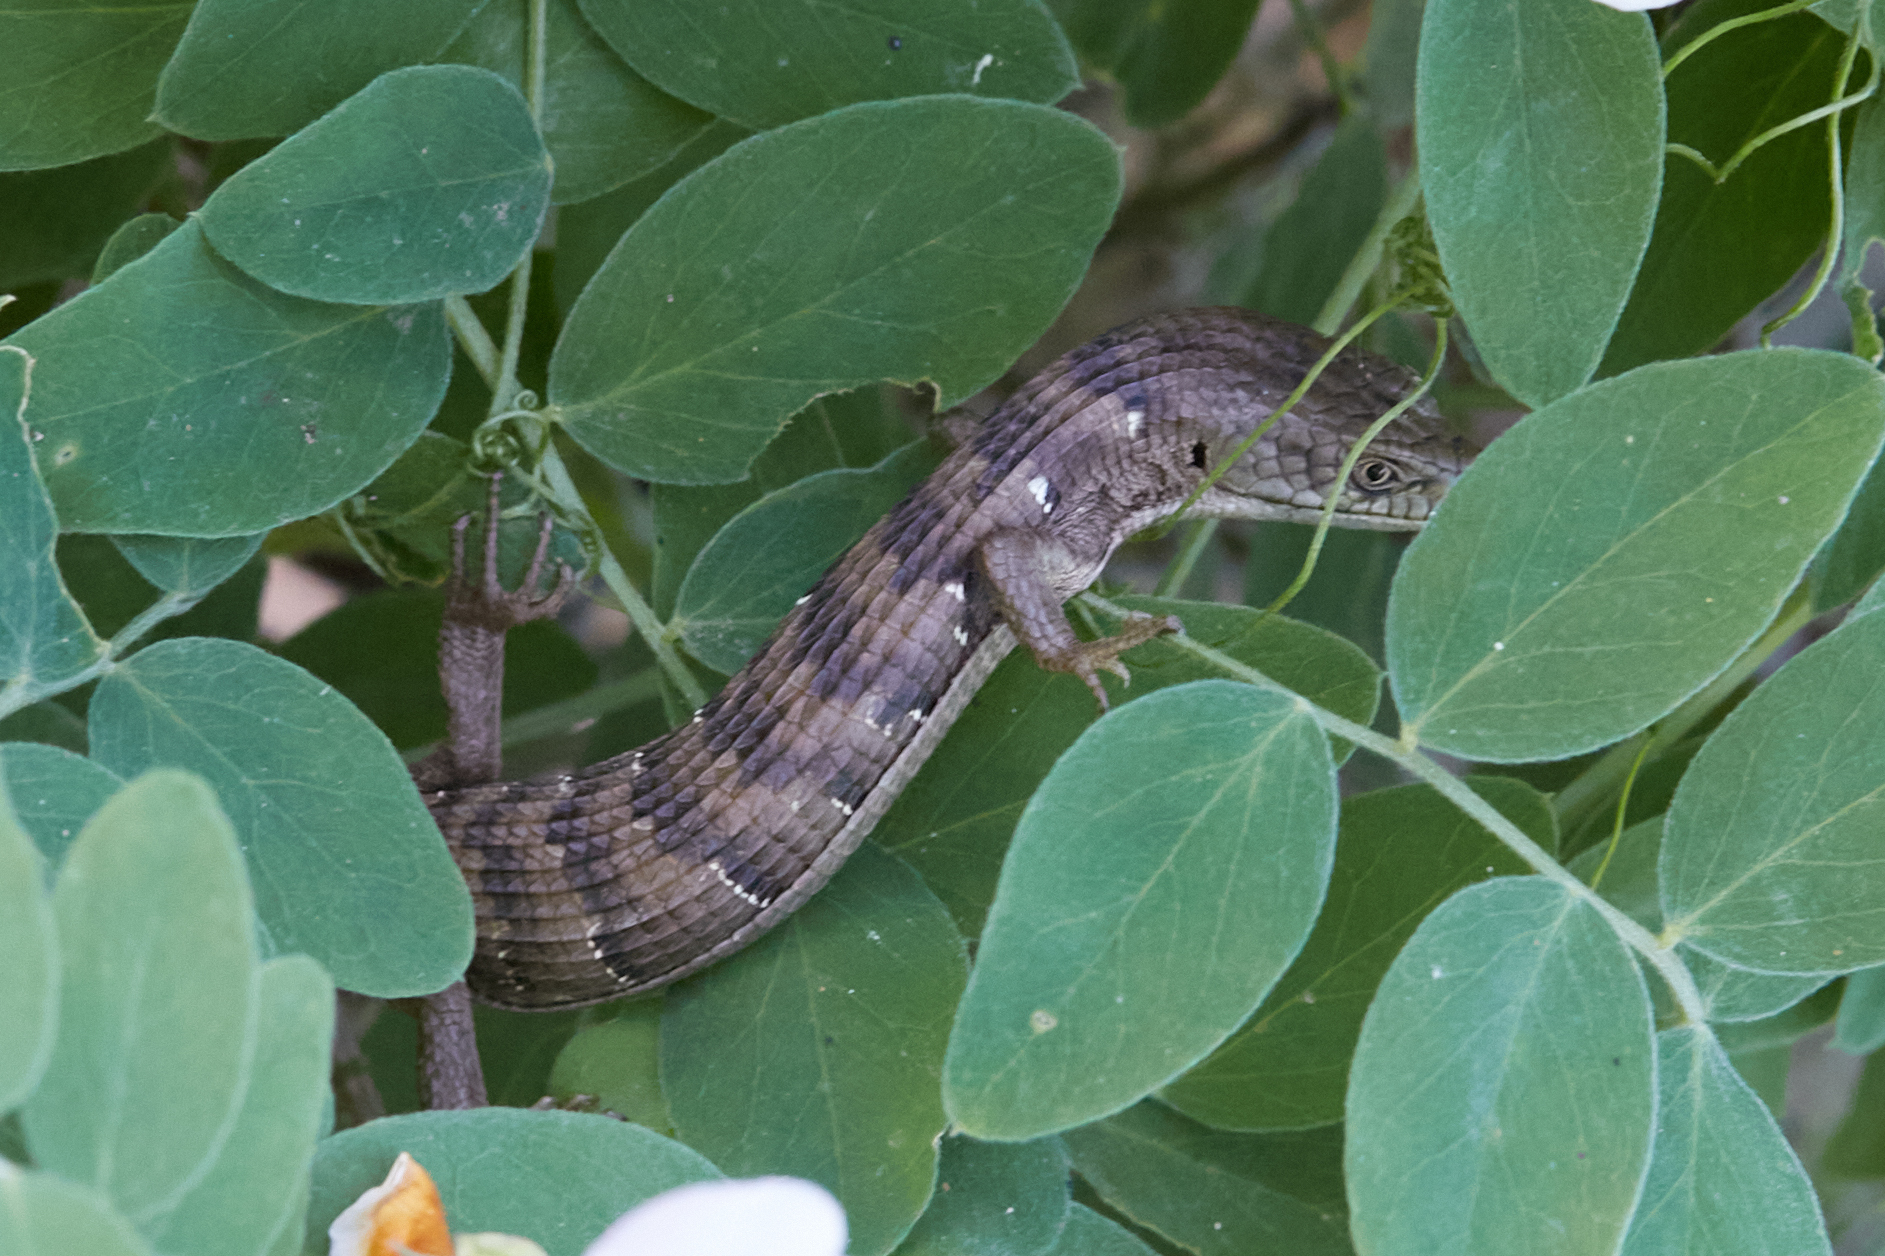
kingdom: Animalia
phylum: Chordata
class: Squamata
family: Anguidae
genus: Elgaria
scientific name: Elgaria multicarinata
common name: Southern alligator lizard
